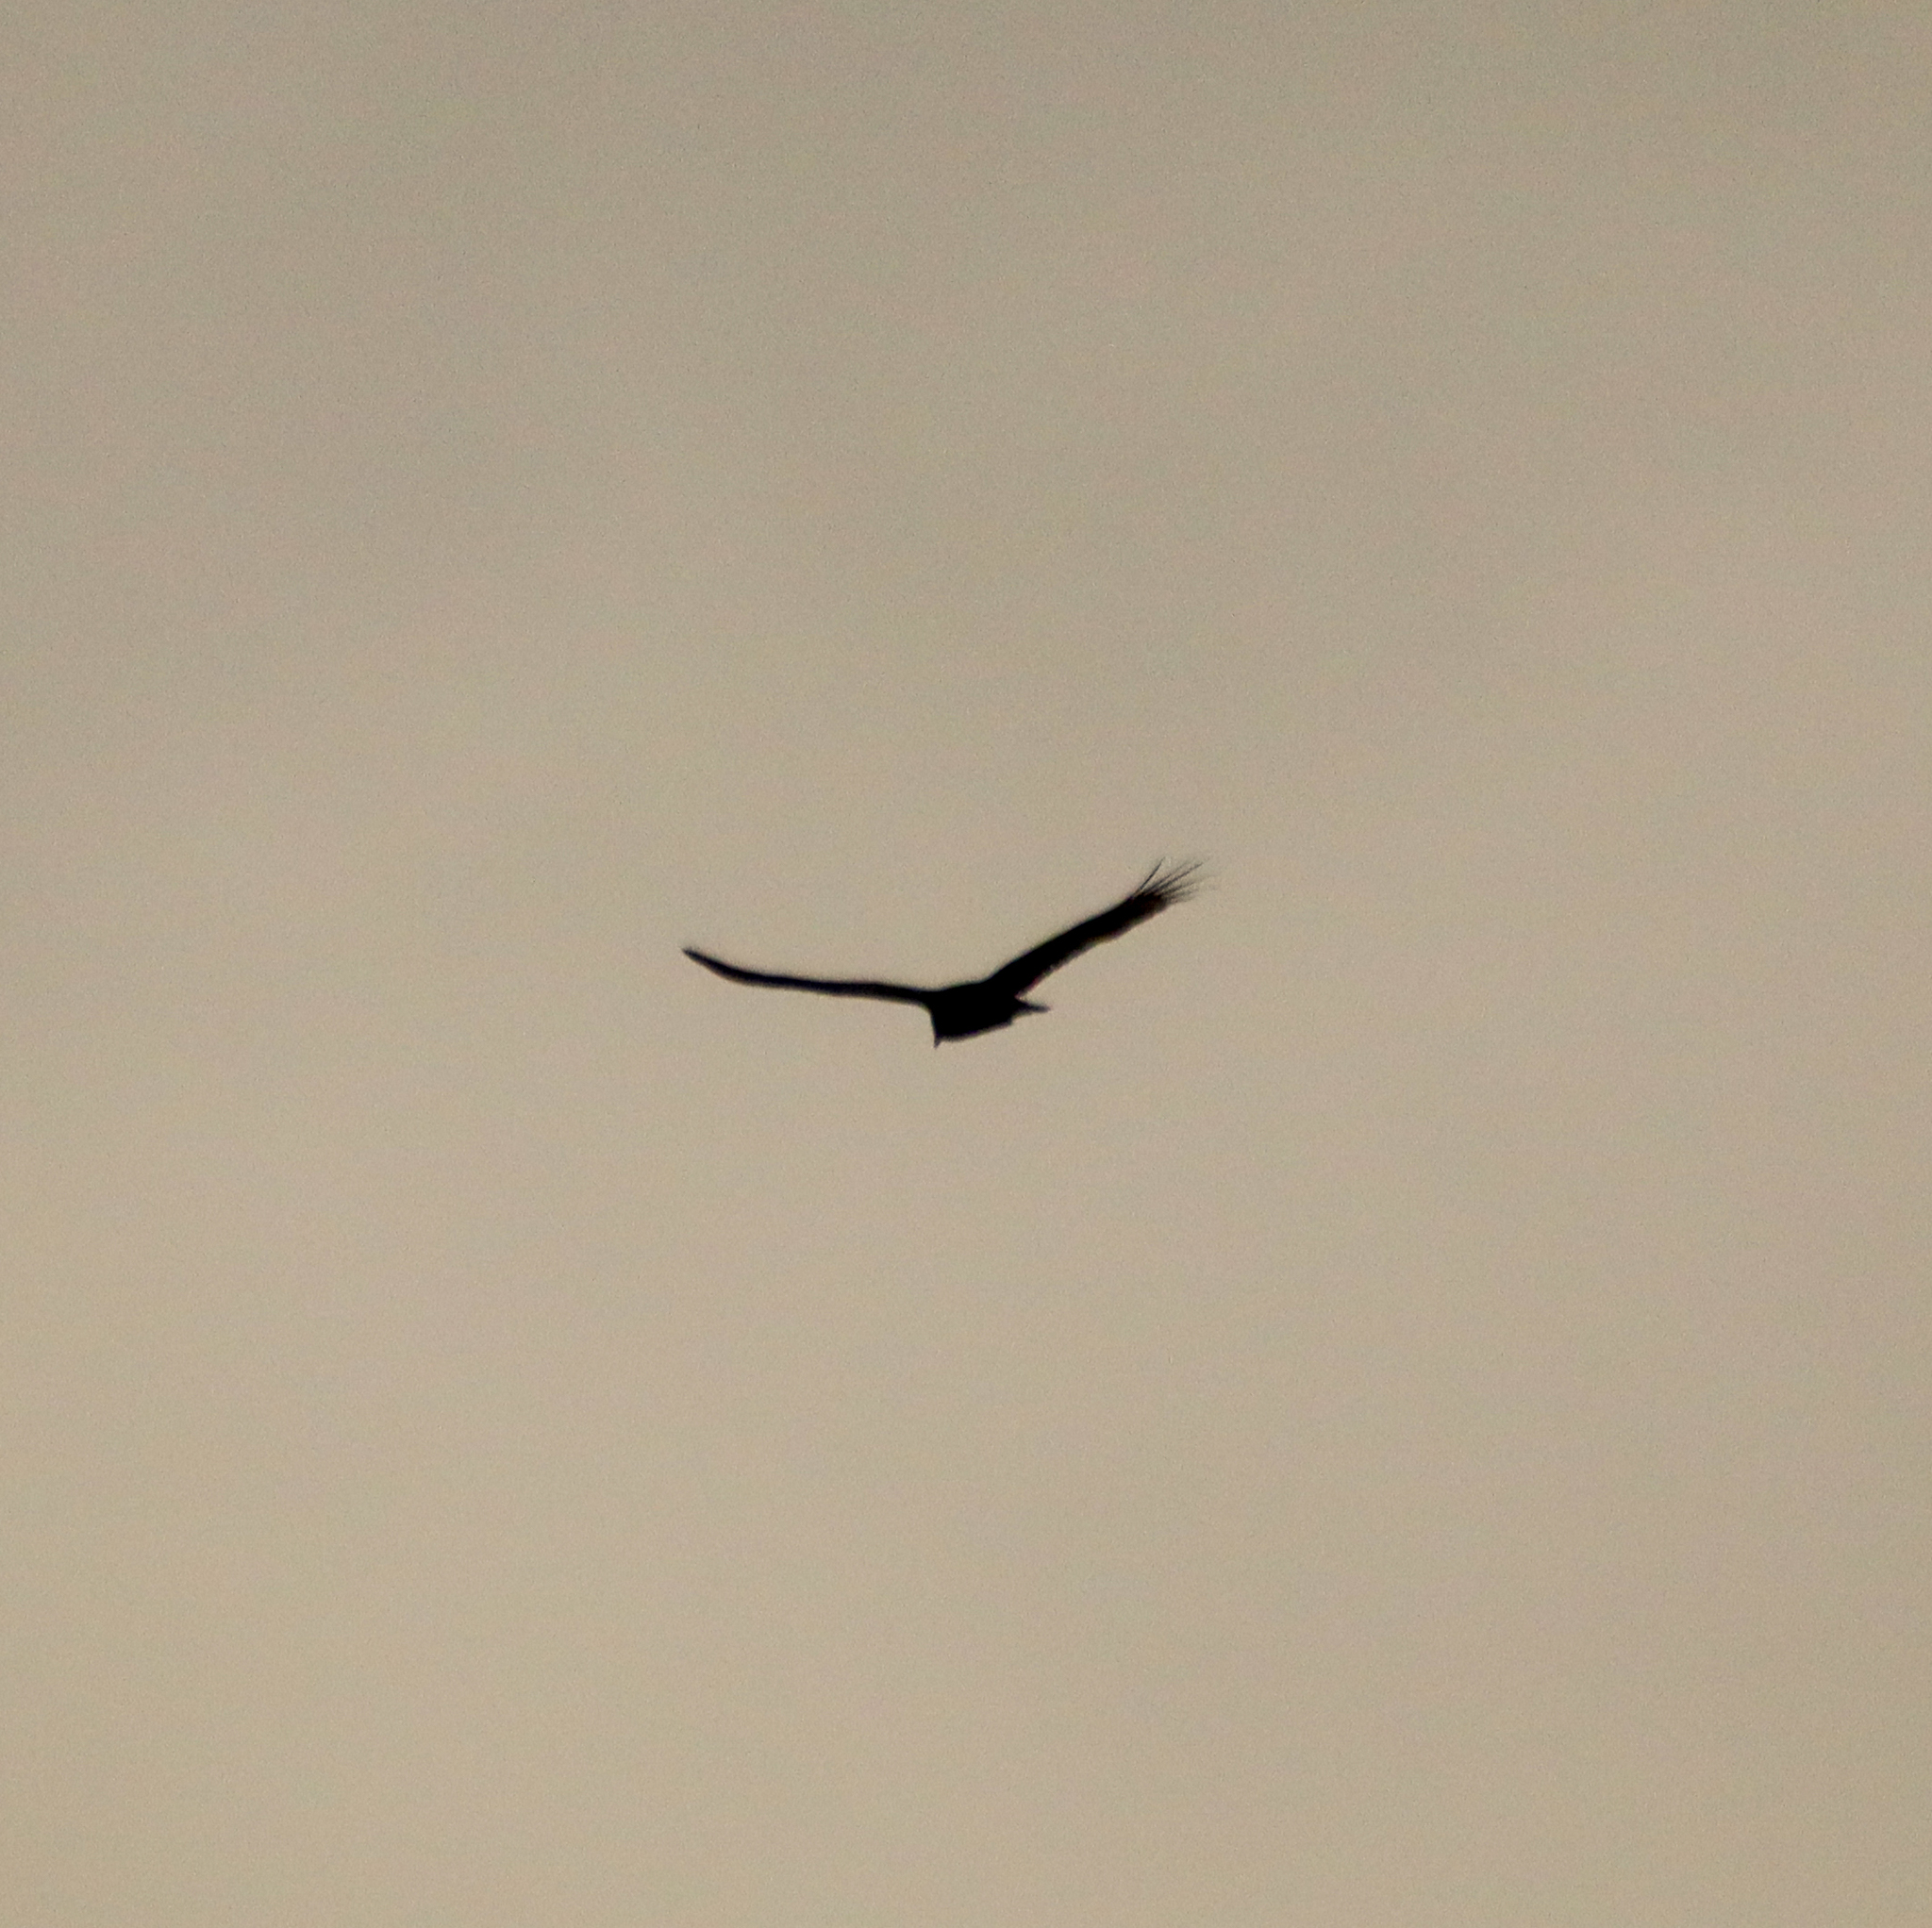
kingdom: Animalia
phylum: Chordata
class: Aves
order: Accipitriformes
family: Cathartidae
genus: Cathartes
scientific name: Cathartes aura
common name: Turkey vulture
